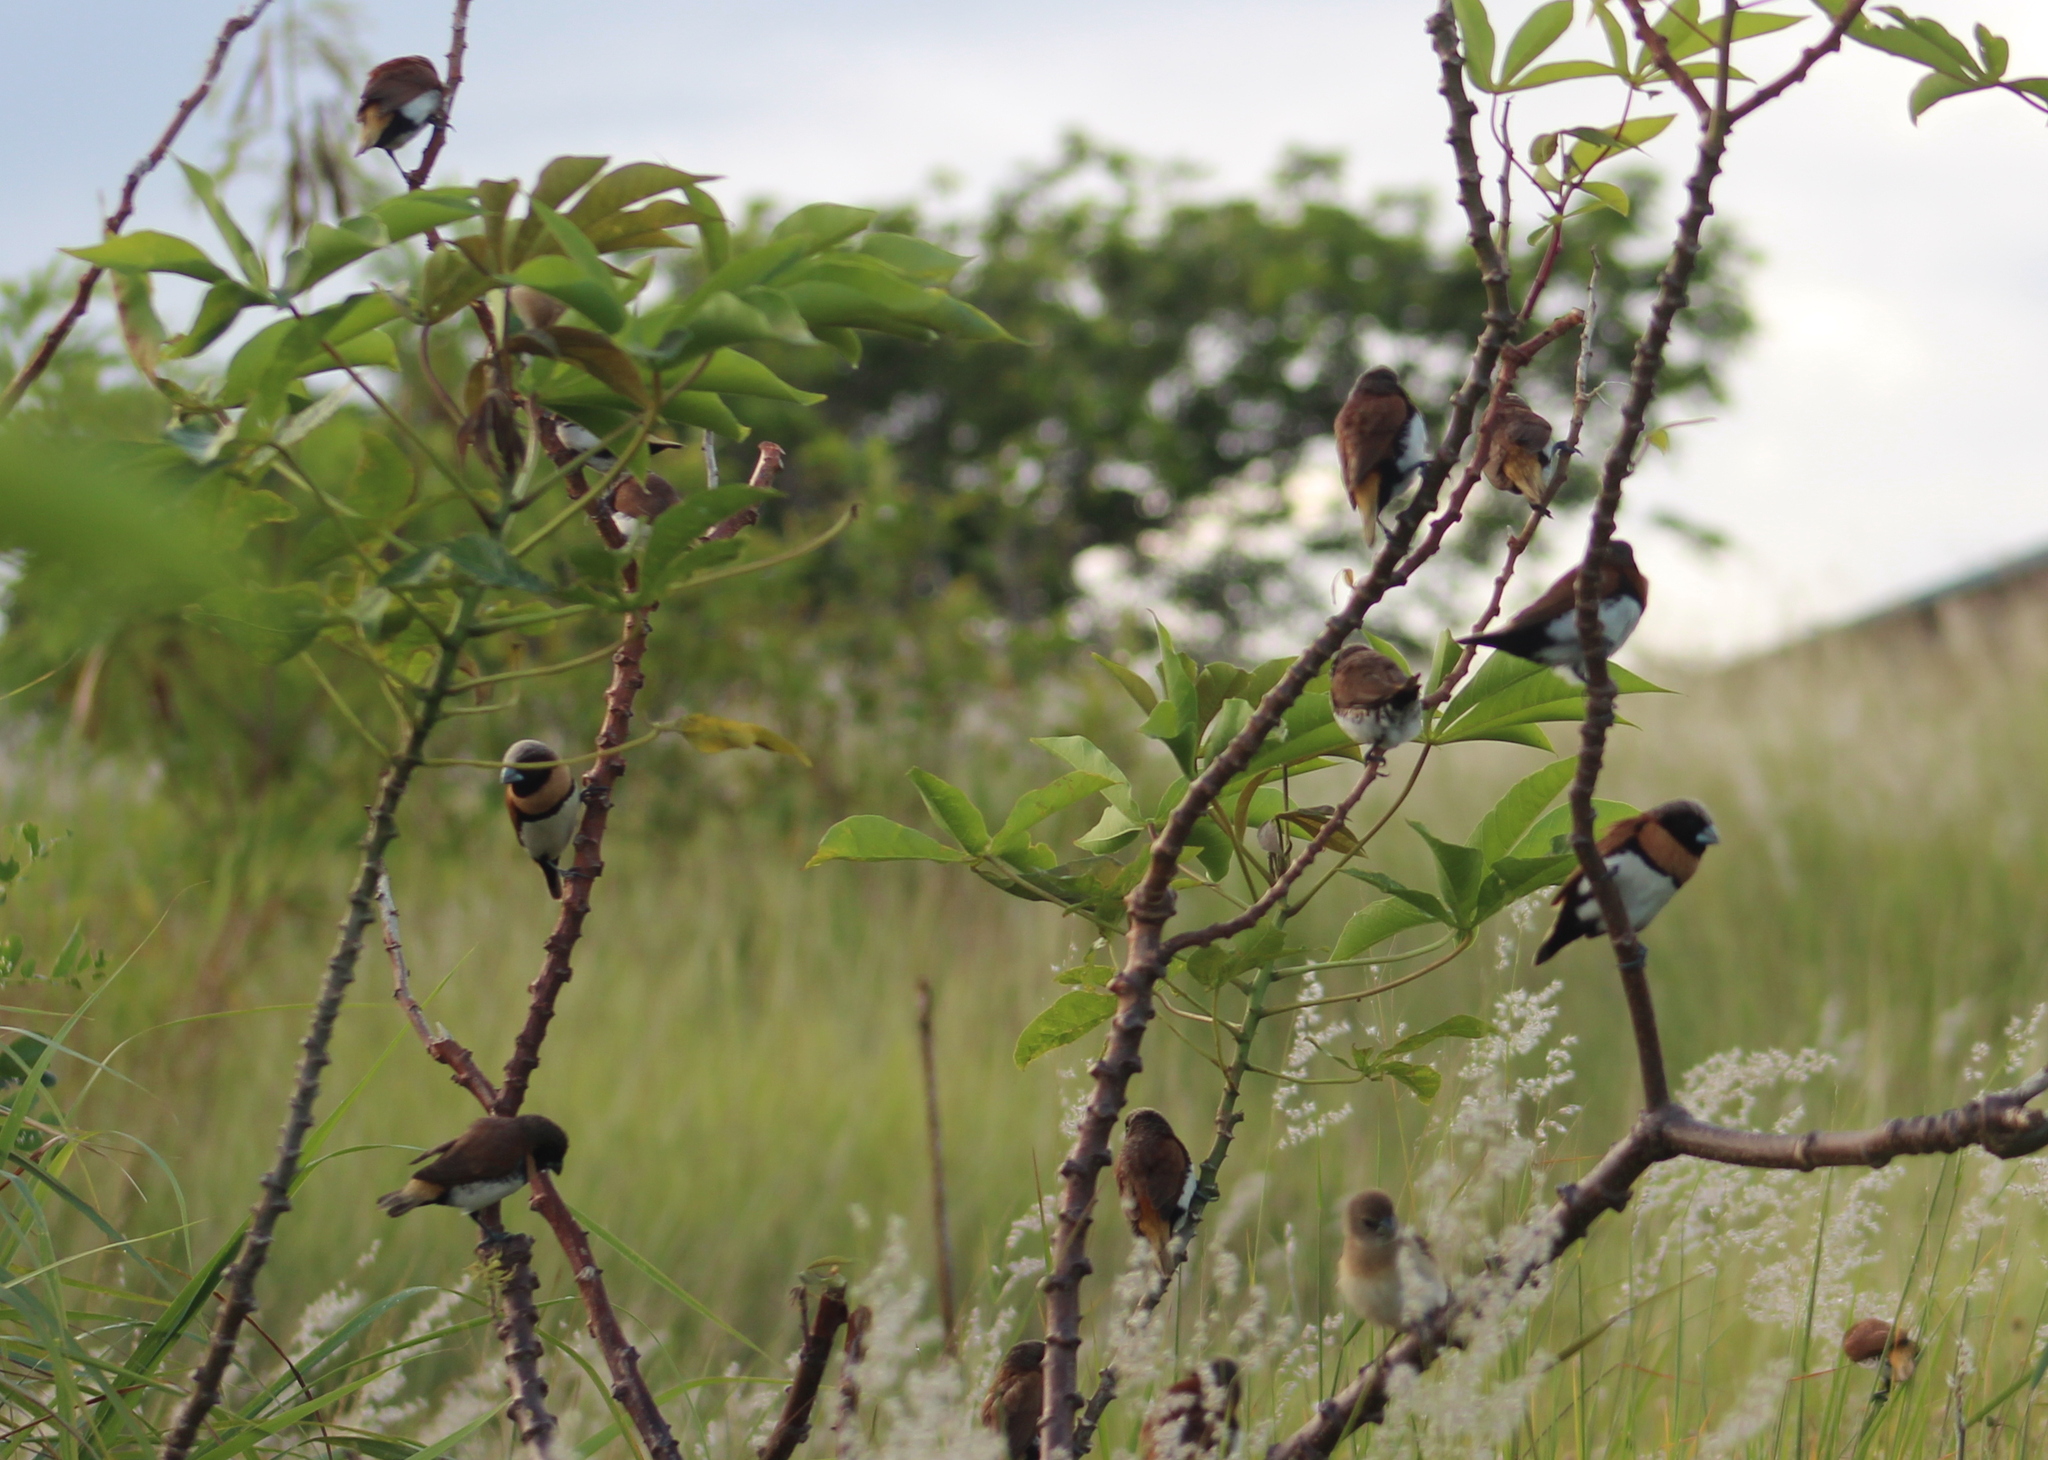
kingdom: Animalia
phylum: Chordata
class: Aves
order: Passeriformes
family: Estrildidae
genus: Lonchura
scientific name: Lonchura castaneothorax
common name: Chestnut-breasted mannikin
